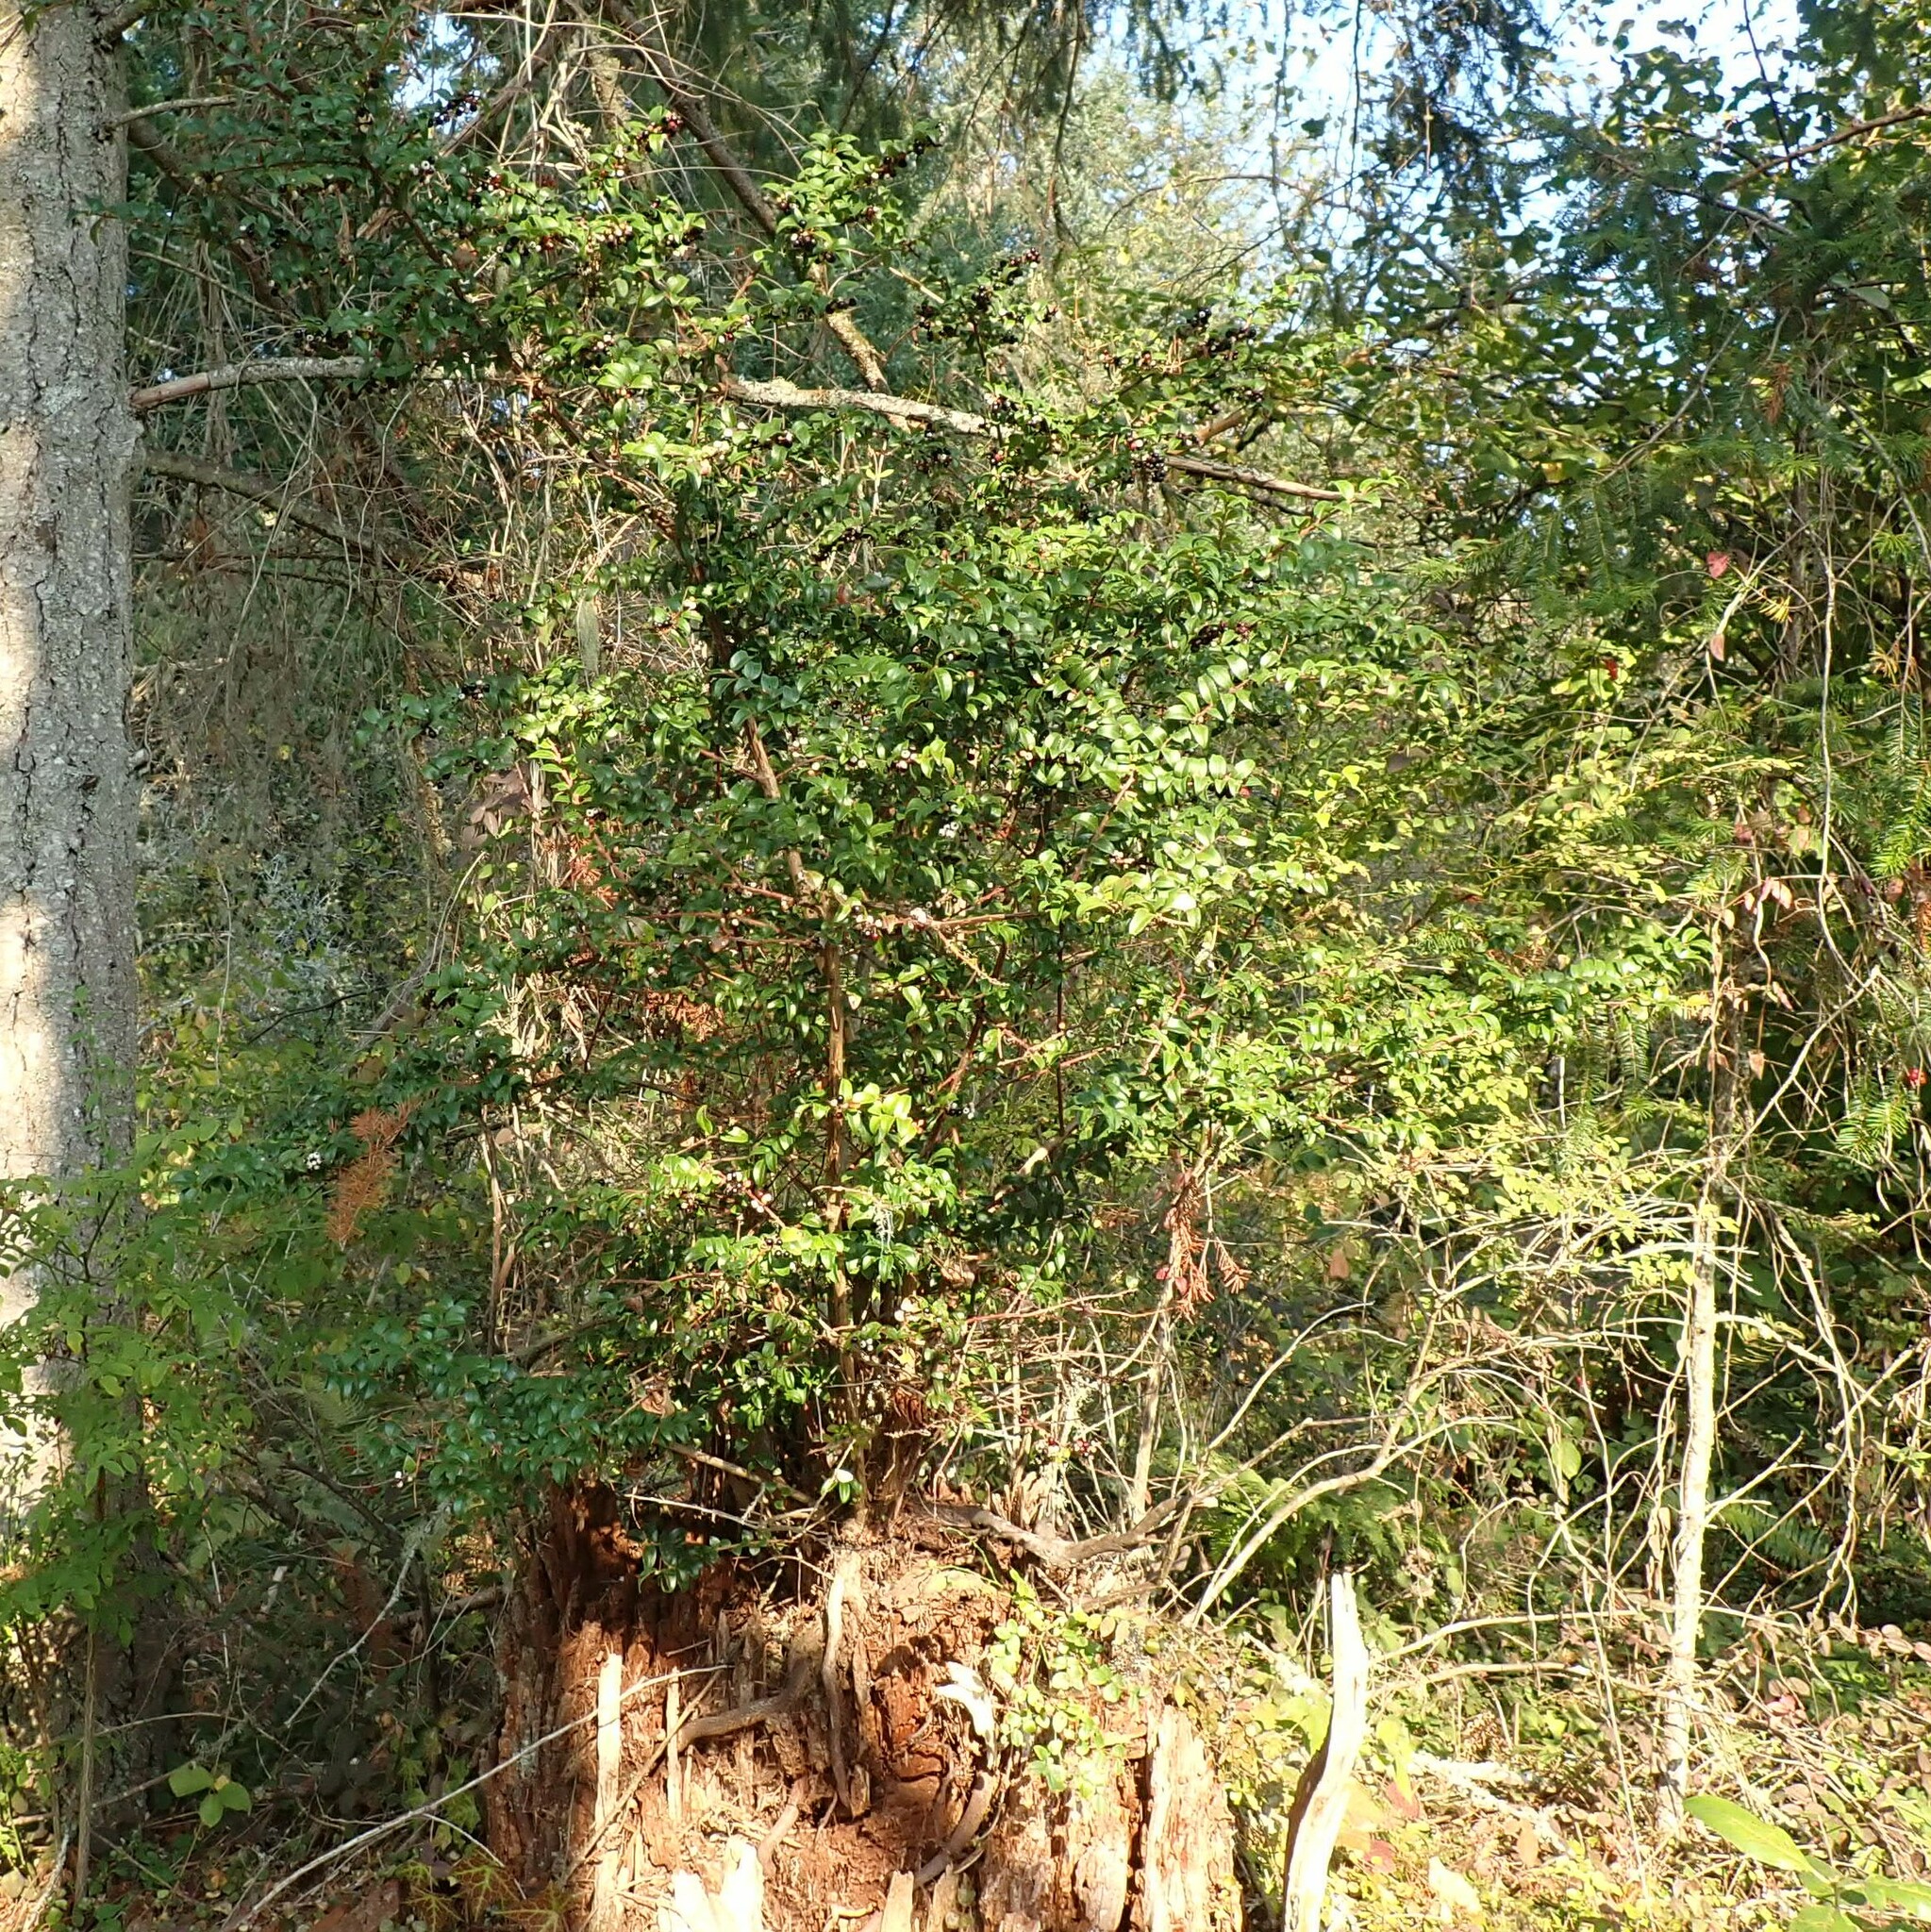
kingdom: Plantae
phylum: Tracheophyta
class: Magnoliopsida
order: Ericales
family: Ericaceae
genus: Vaccinium
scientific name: Vaccinium ovatum
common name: California-huckleberry
